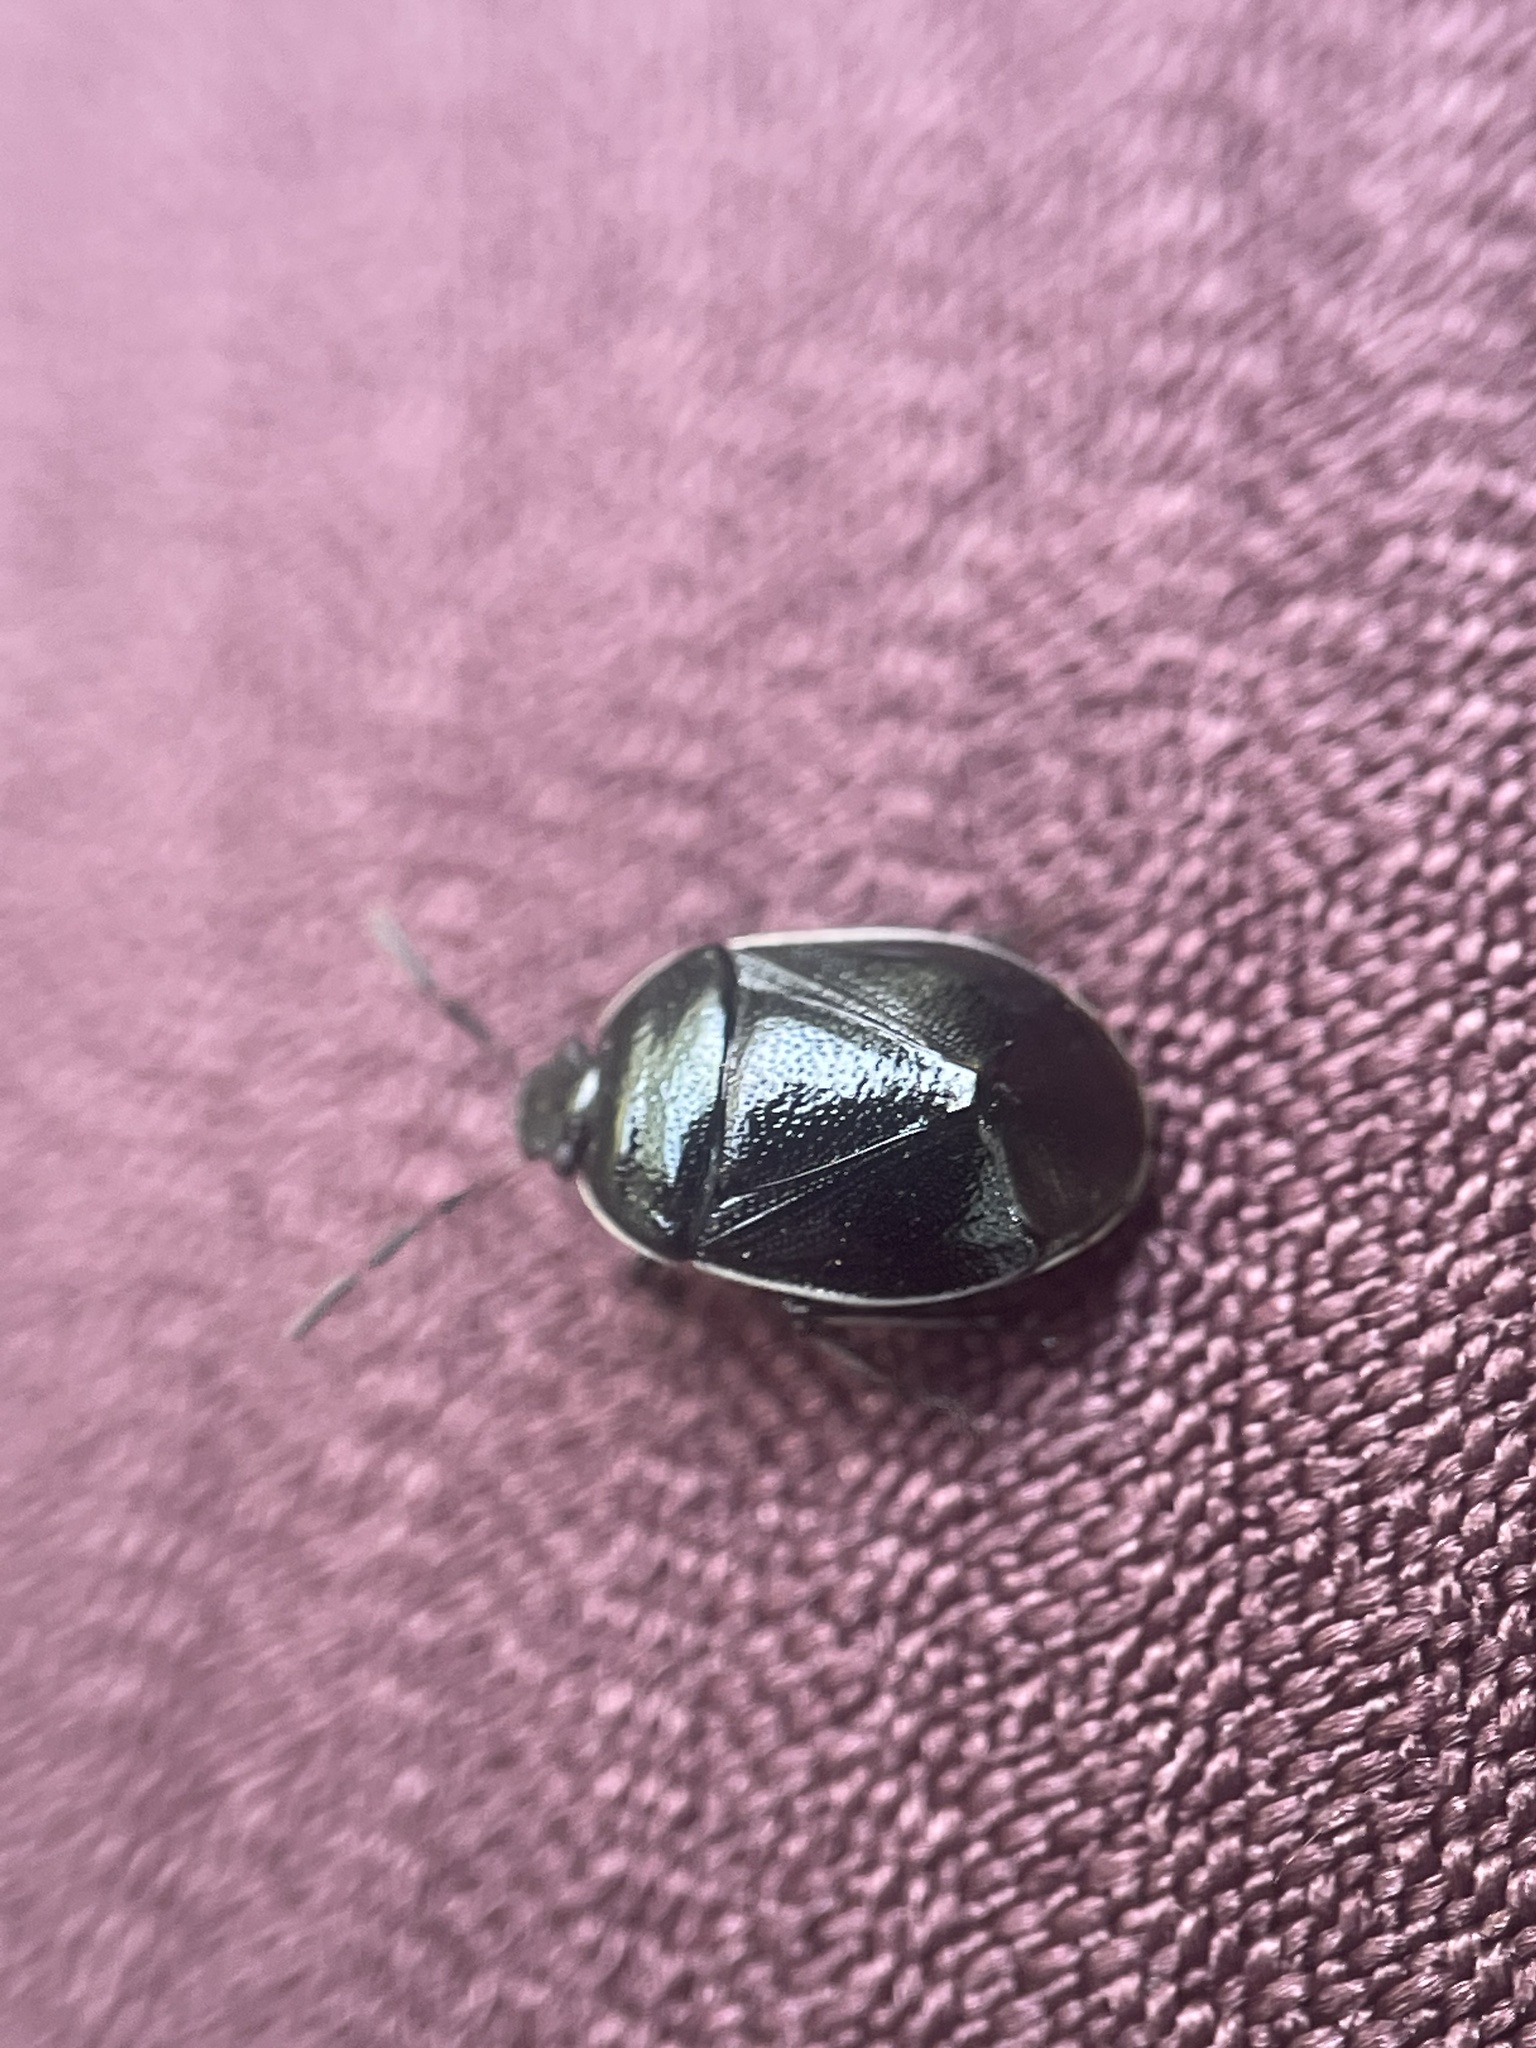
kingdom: Animalia
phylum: Arthropoda
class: Insecta
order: Hemiptera
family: Cydnidae
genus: Sehirus
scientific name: Sehirus cinctus
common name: White-margined burrower bug
